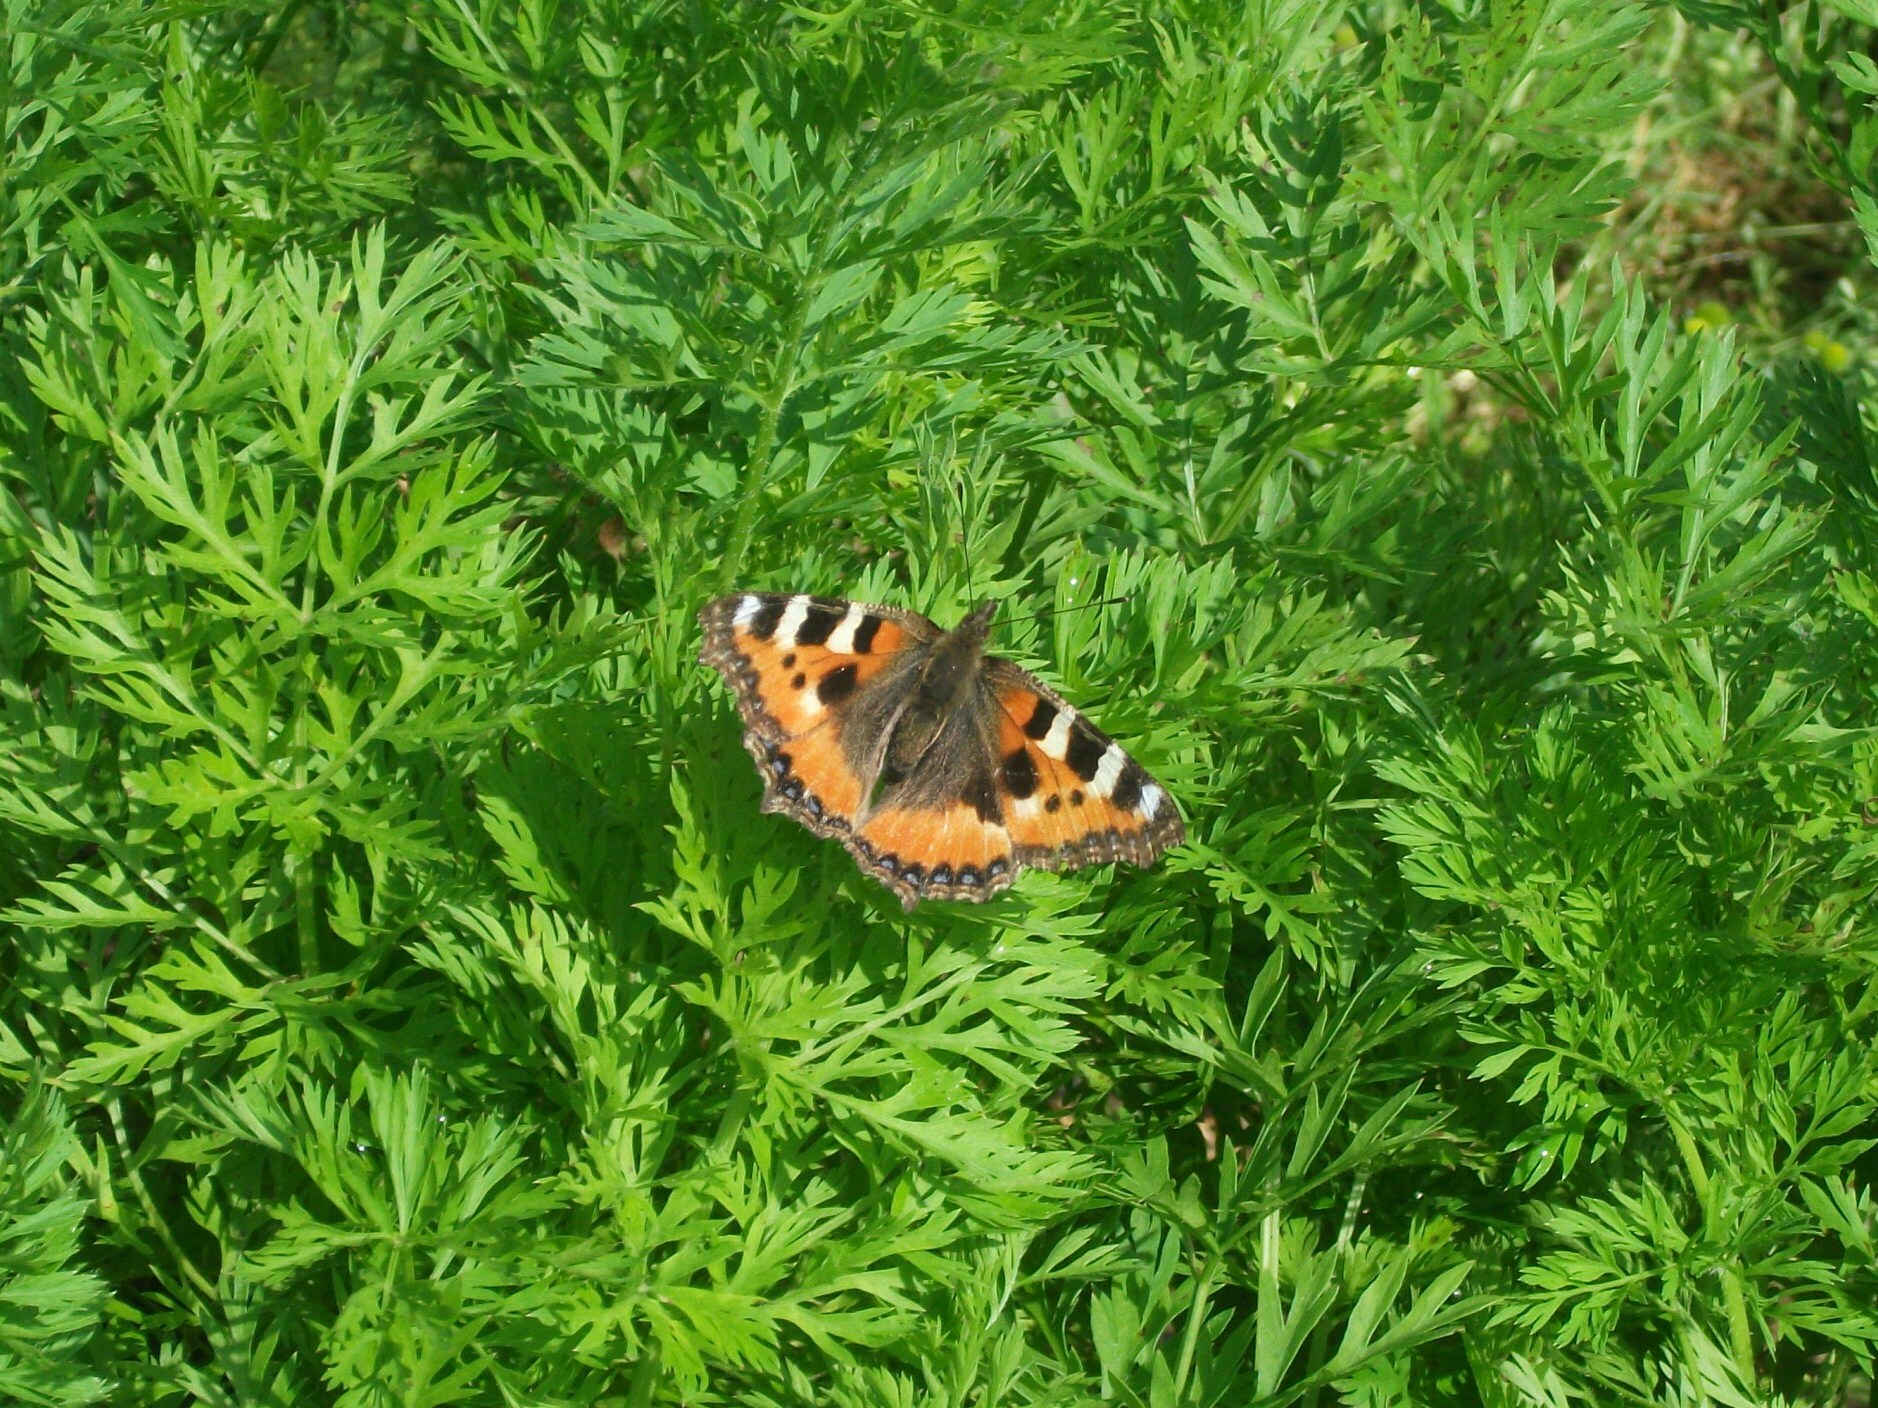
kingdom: Animalia
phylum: Arthropoda
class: Insecta
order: Lepidoptera
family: Nymphalidae
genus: Aglais
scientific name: Aglais urticae
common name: Small tortoiseshell
